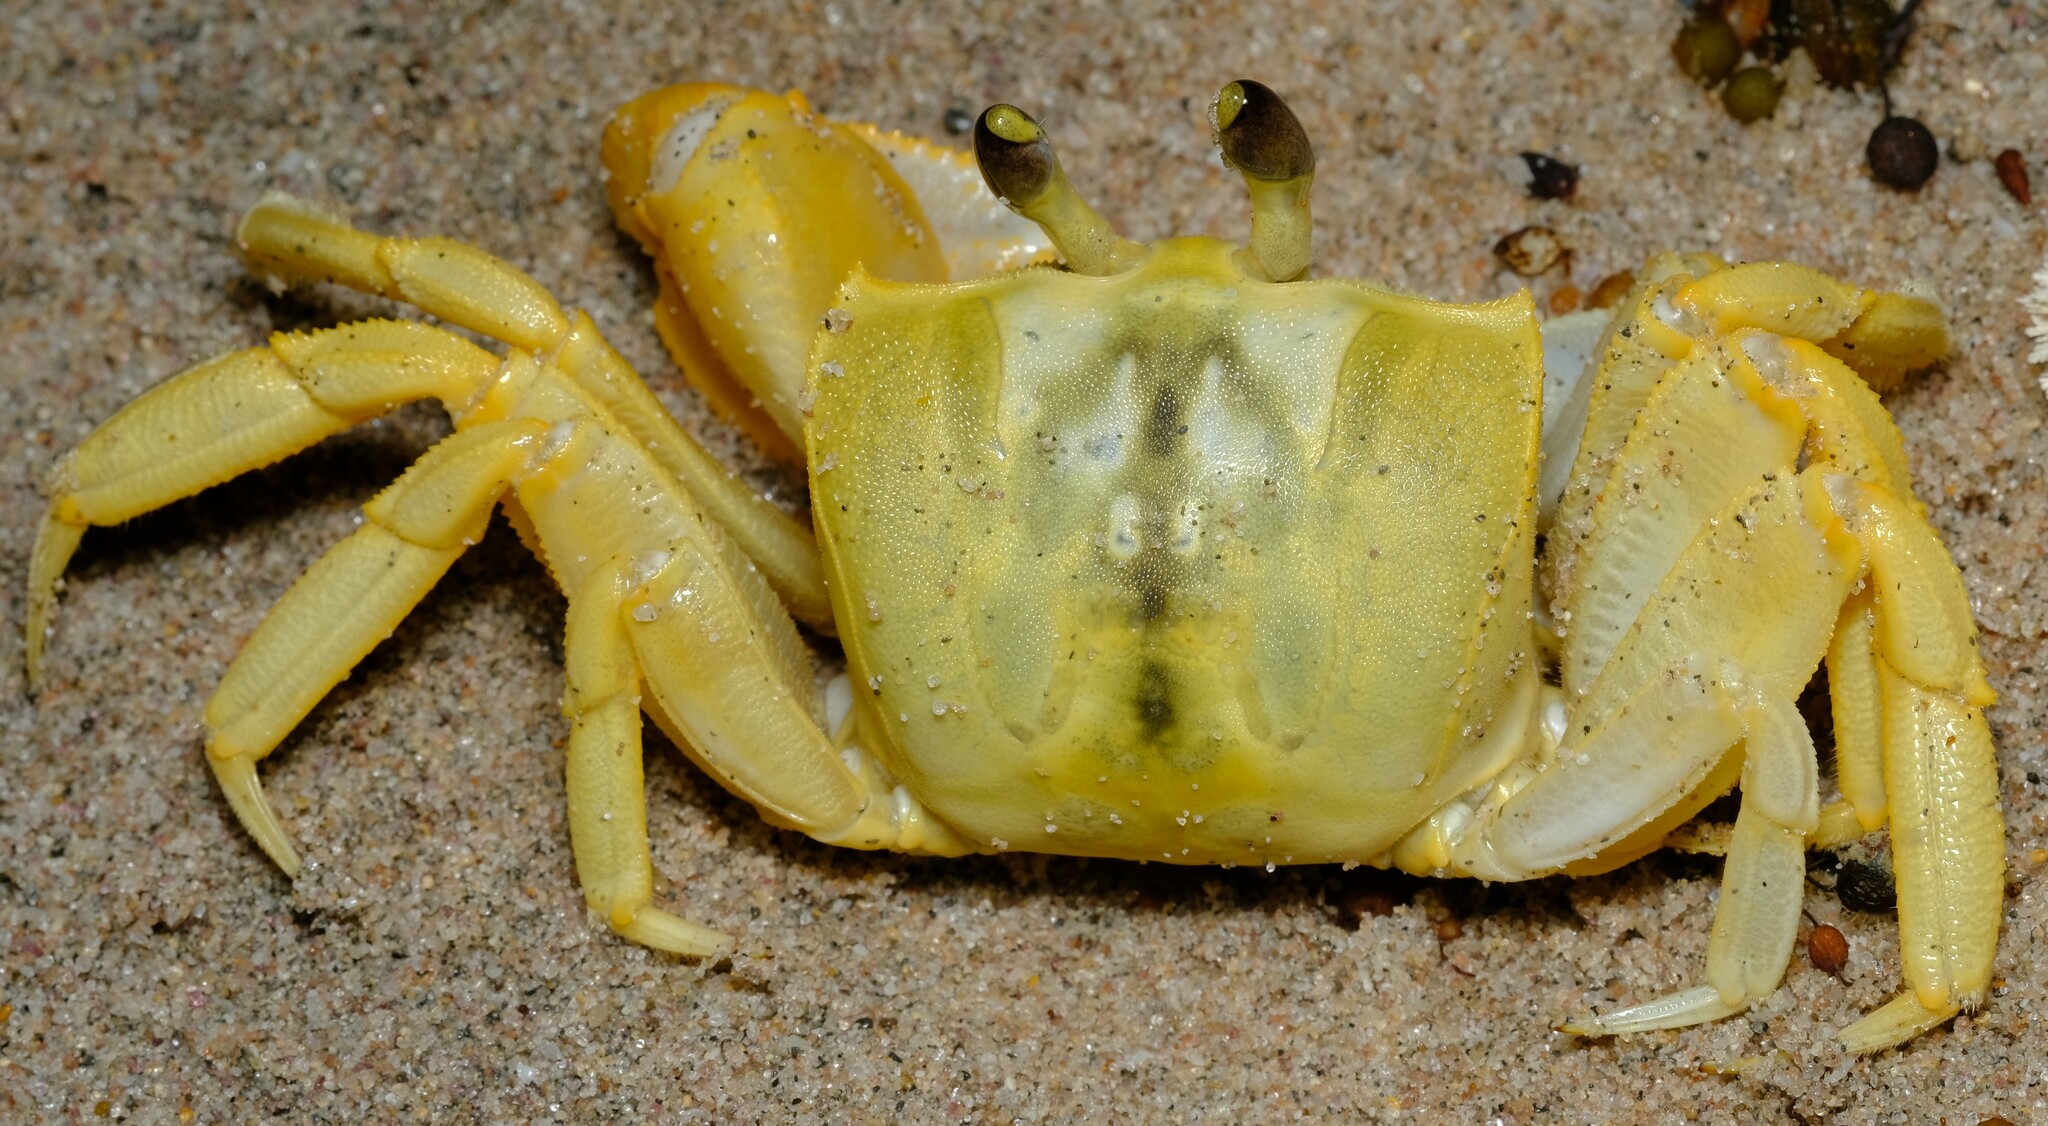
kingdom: Animalia
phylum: Arthropoda
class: Malacostraca
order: Decapoda
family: Ocypodidae
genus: Ocypode
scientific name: Ocypode convexa
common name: Golden ghost crab
